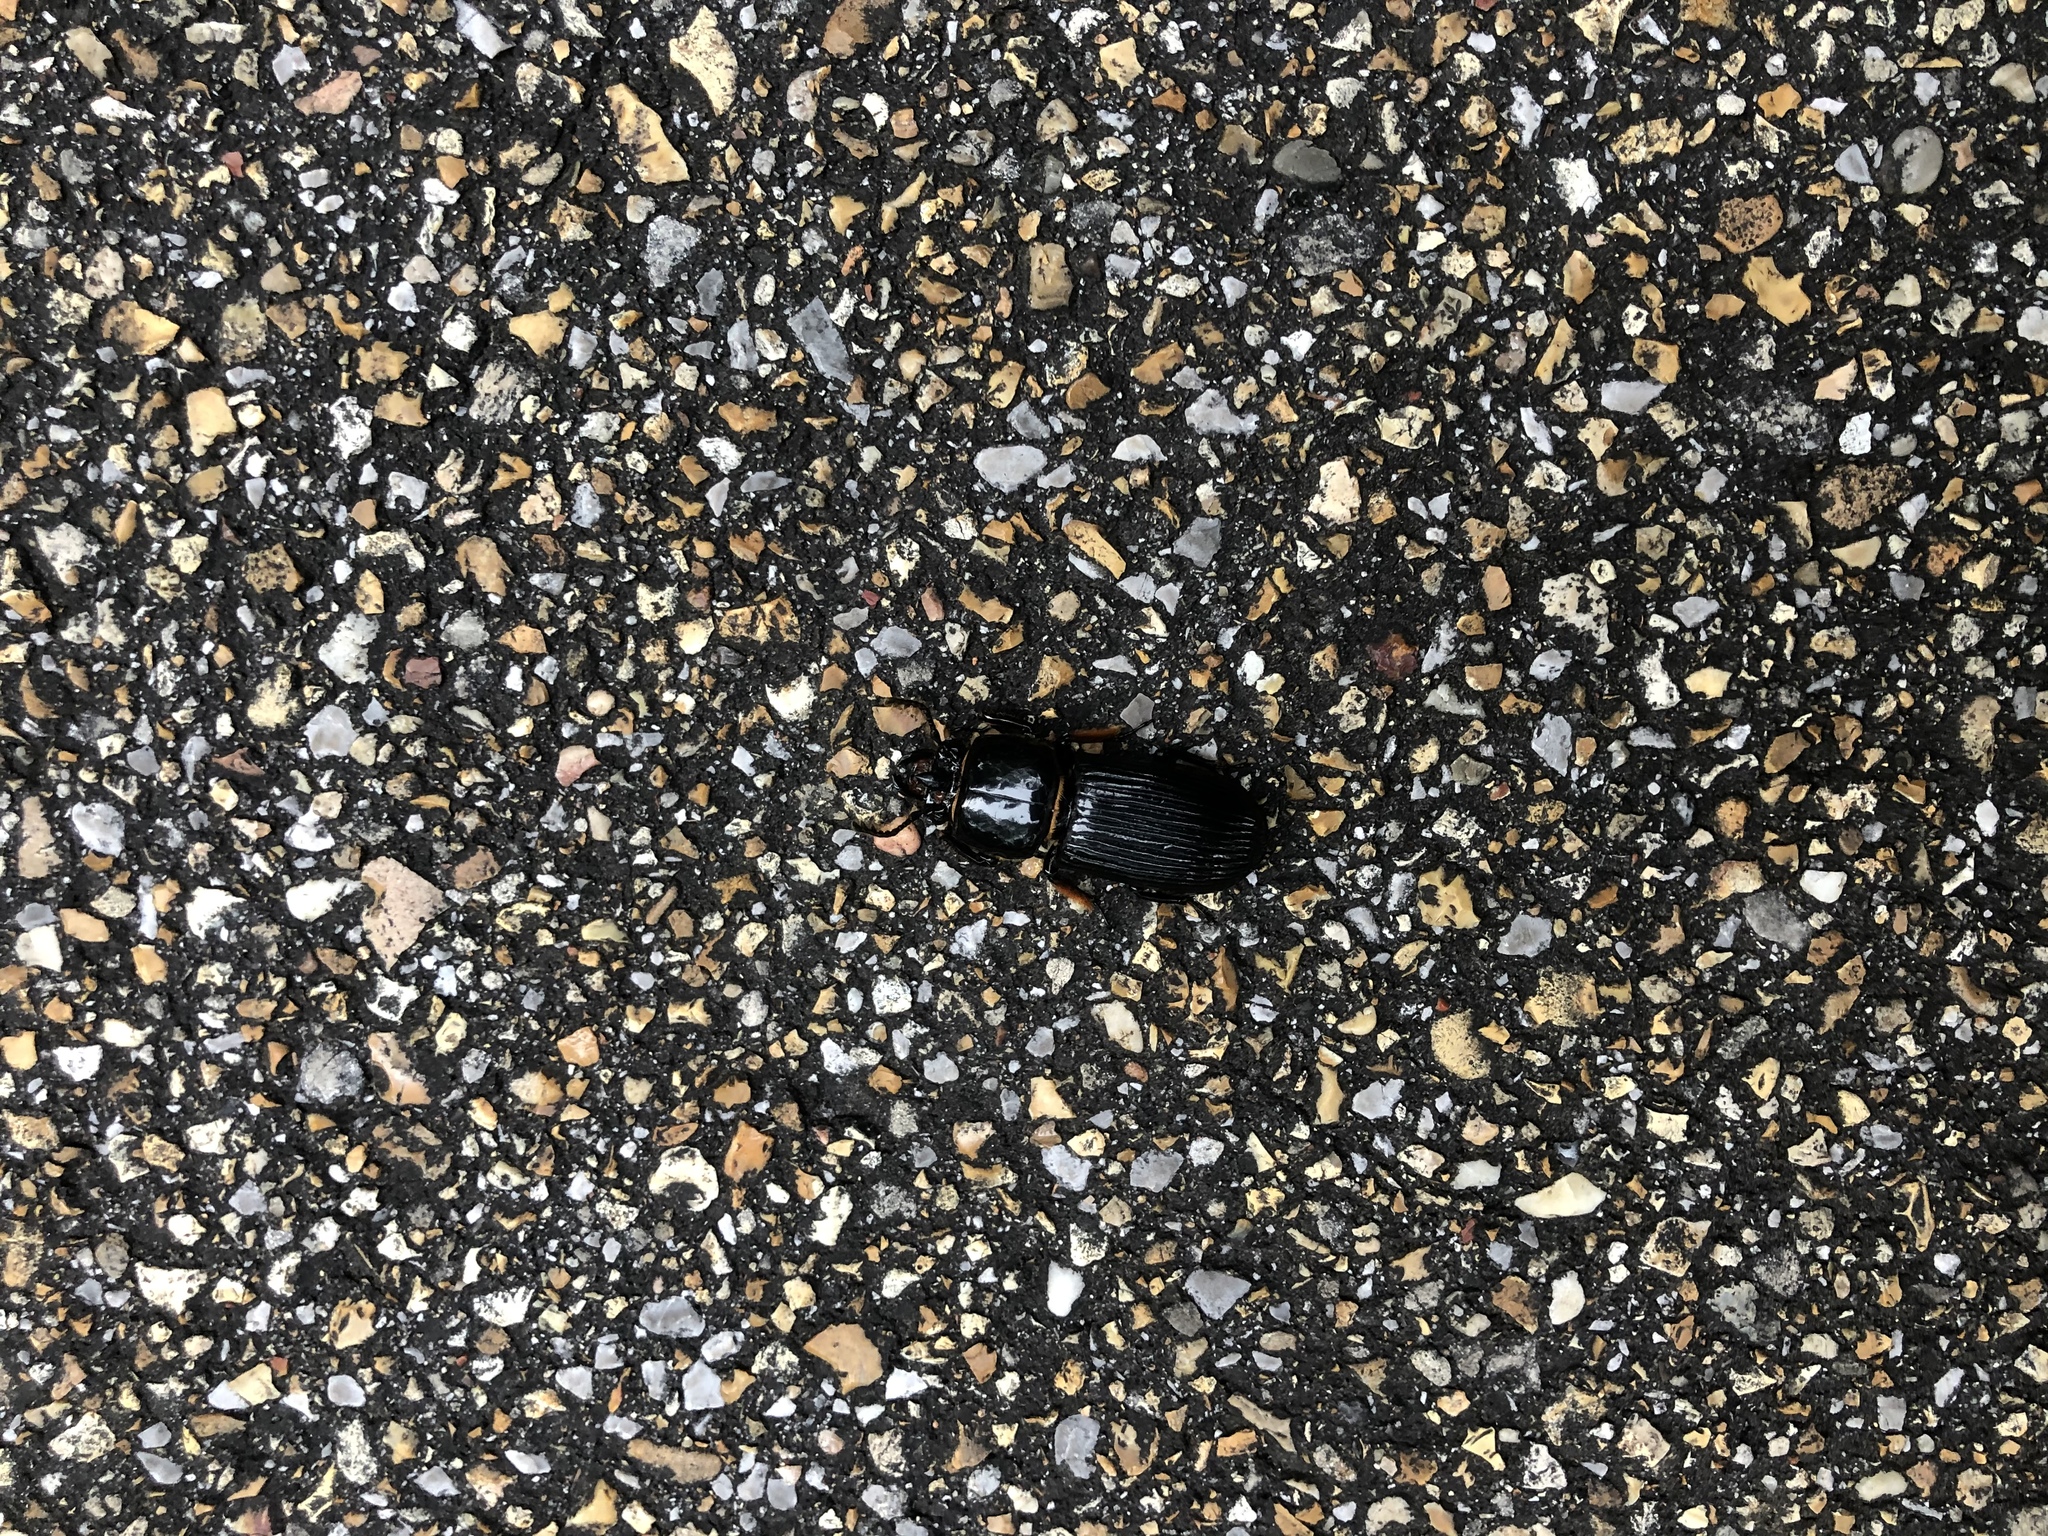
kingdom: Animalia
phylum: Arthropoda
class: Insecta
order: Coleoptera
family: Passalidae
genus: Odontotaenius
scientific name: Odontotaenius disjunctus
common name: Patent leather beetle
